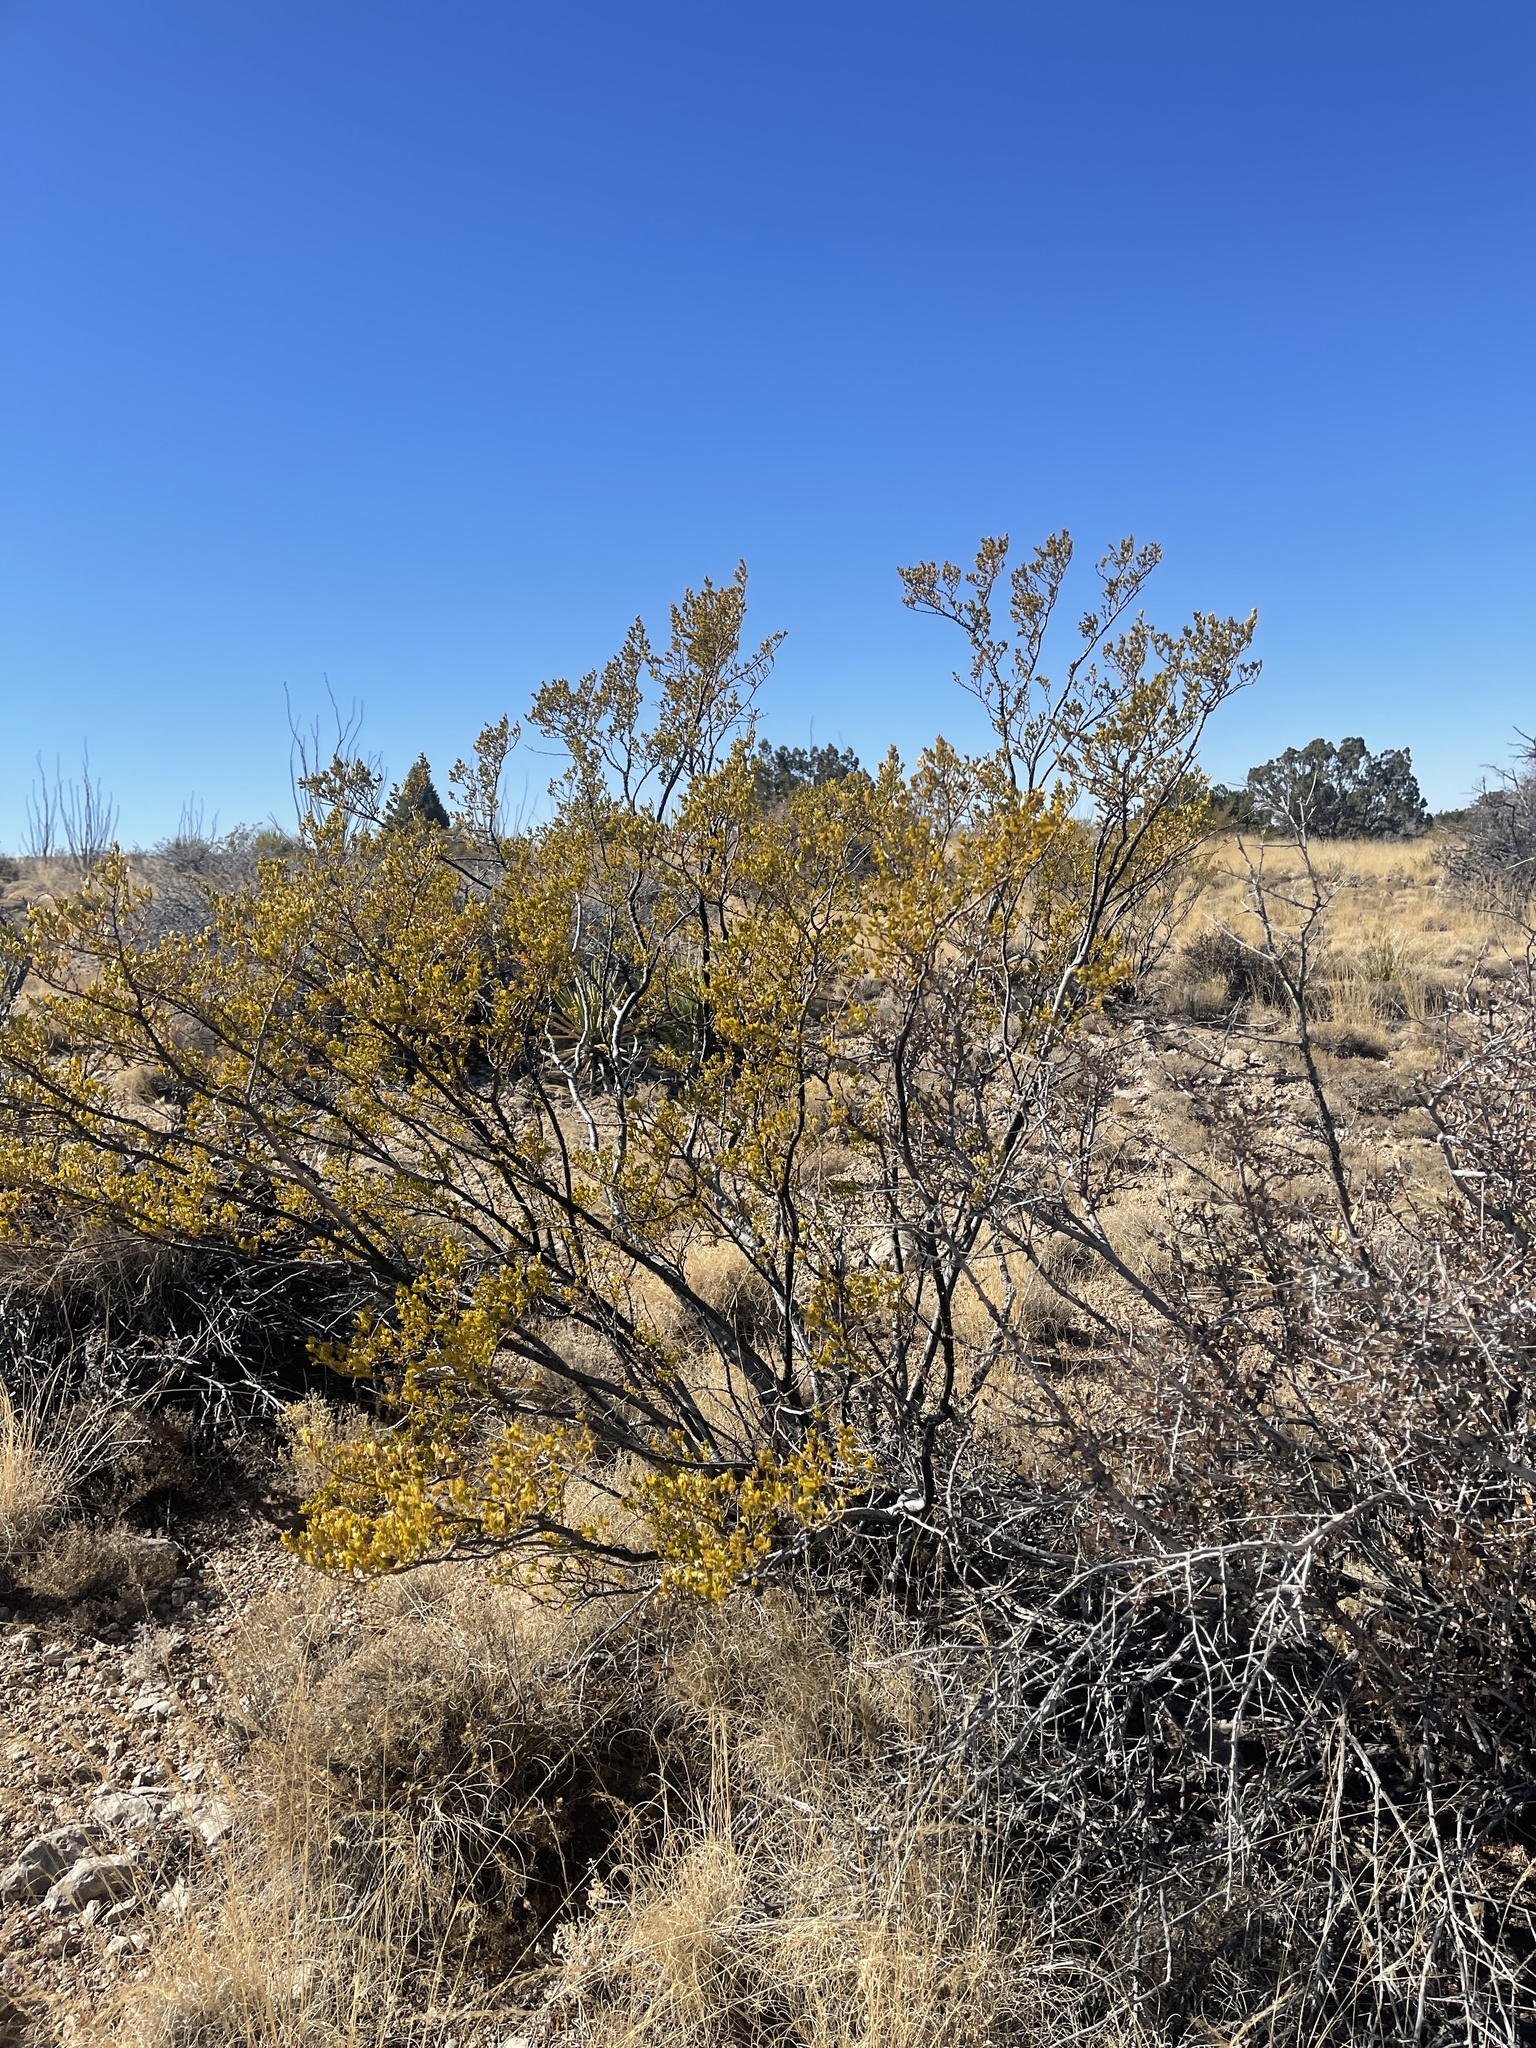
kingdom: Plantae
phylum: Tracheophyta
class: Magnoliopsida
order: Zygophyllales
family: Zygophyllaceae
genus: Larrea
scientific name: Larrea tridentata
